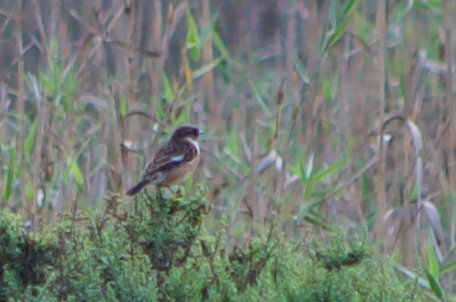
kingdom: Animalia
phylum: Chordata
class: Aves
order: Passeriformes
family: Muscicapidae
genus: Saxicola
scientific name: Saxicola rubicola
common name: European stonechat
